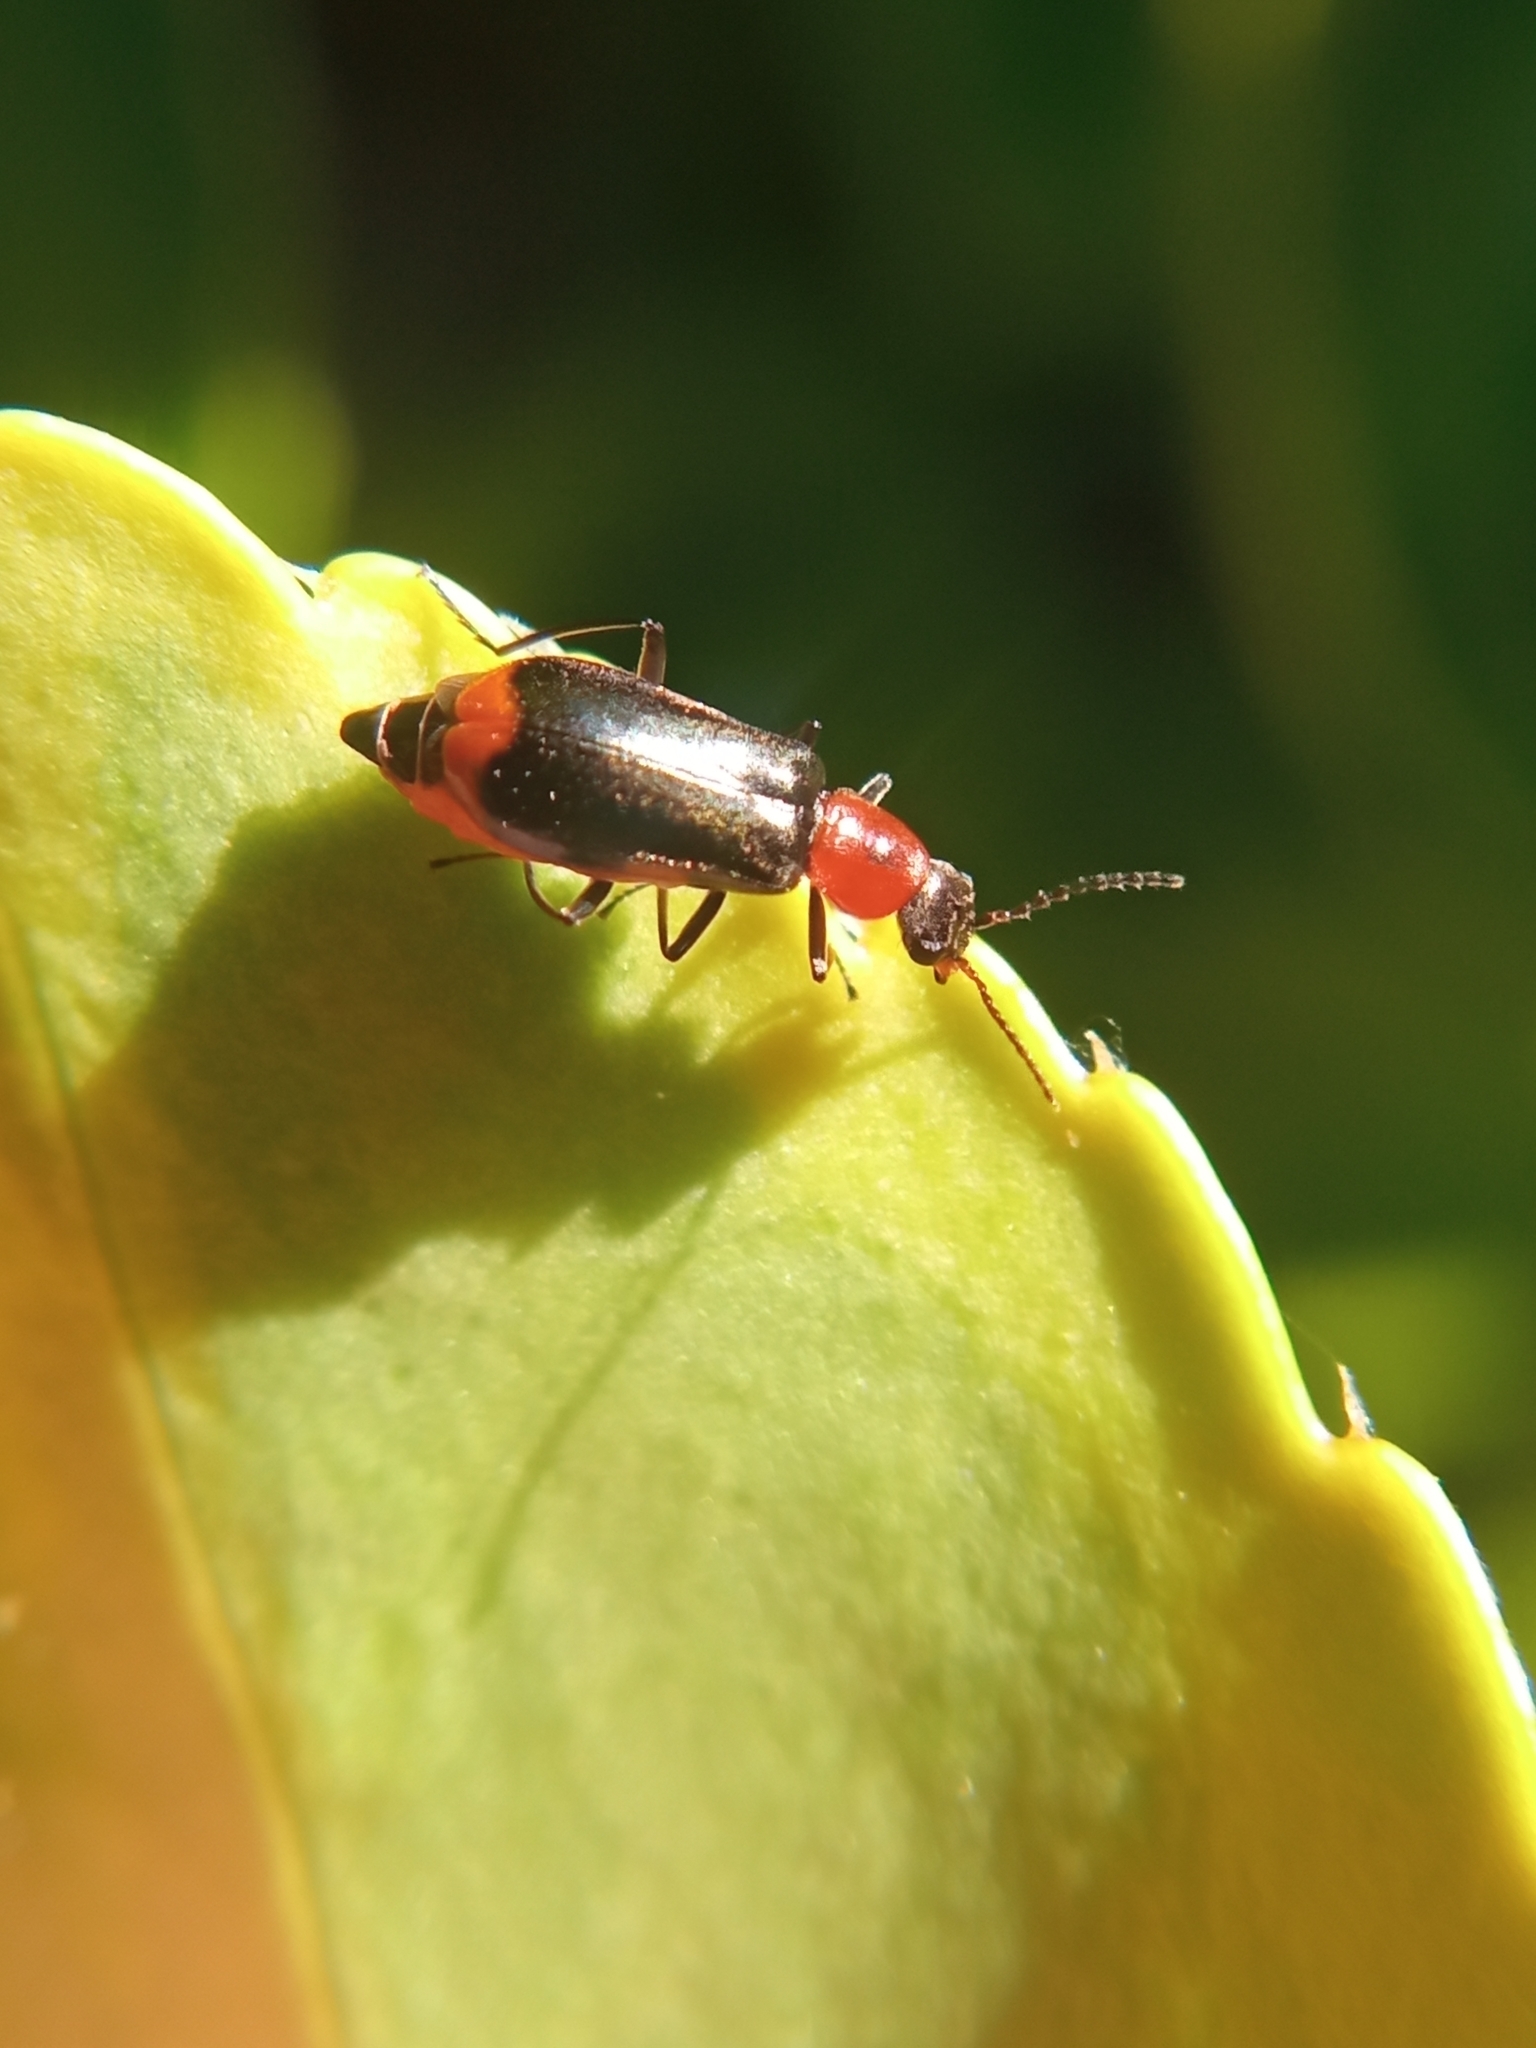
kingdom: Animalia
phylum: Arthropoda
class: Insecta
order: Coleoptera
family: Malachiidae
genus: Attalus
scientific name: Attalus minimus
